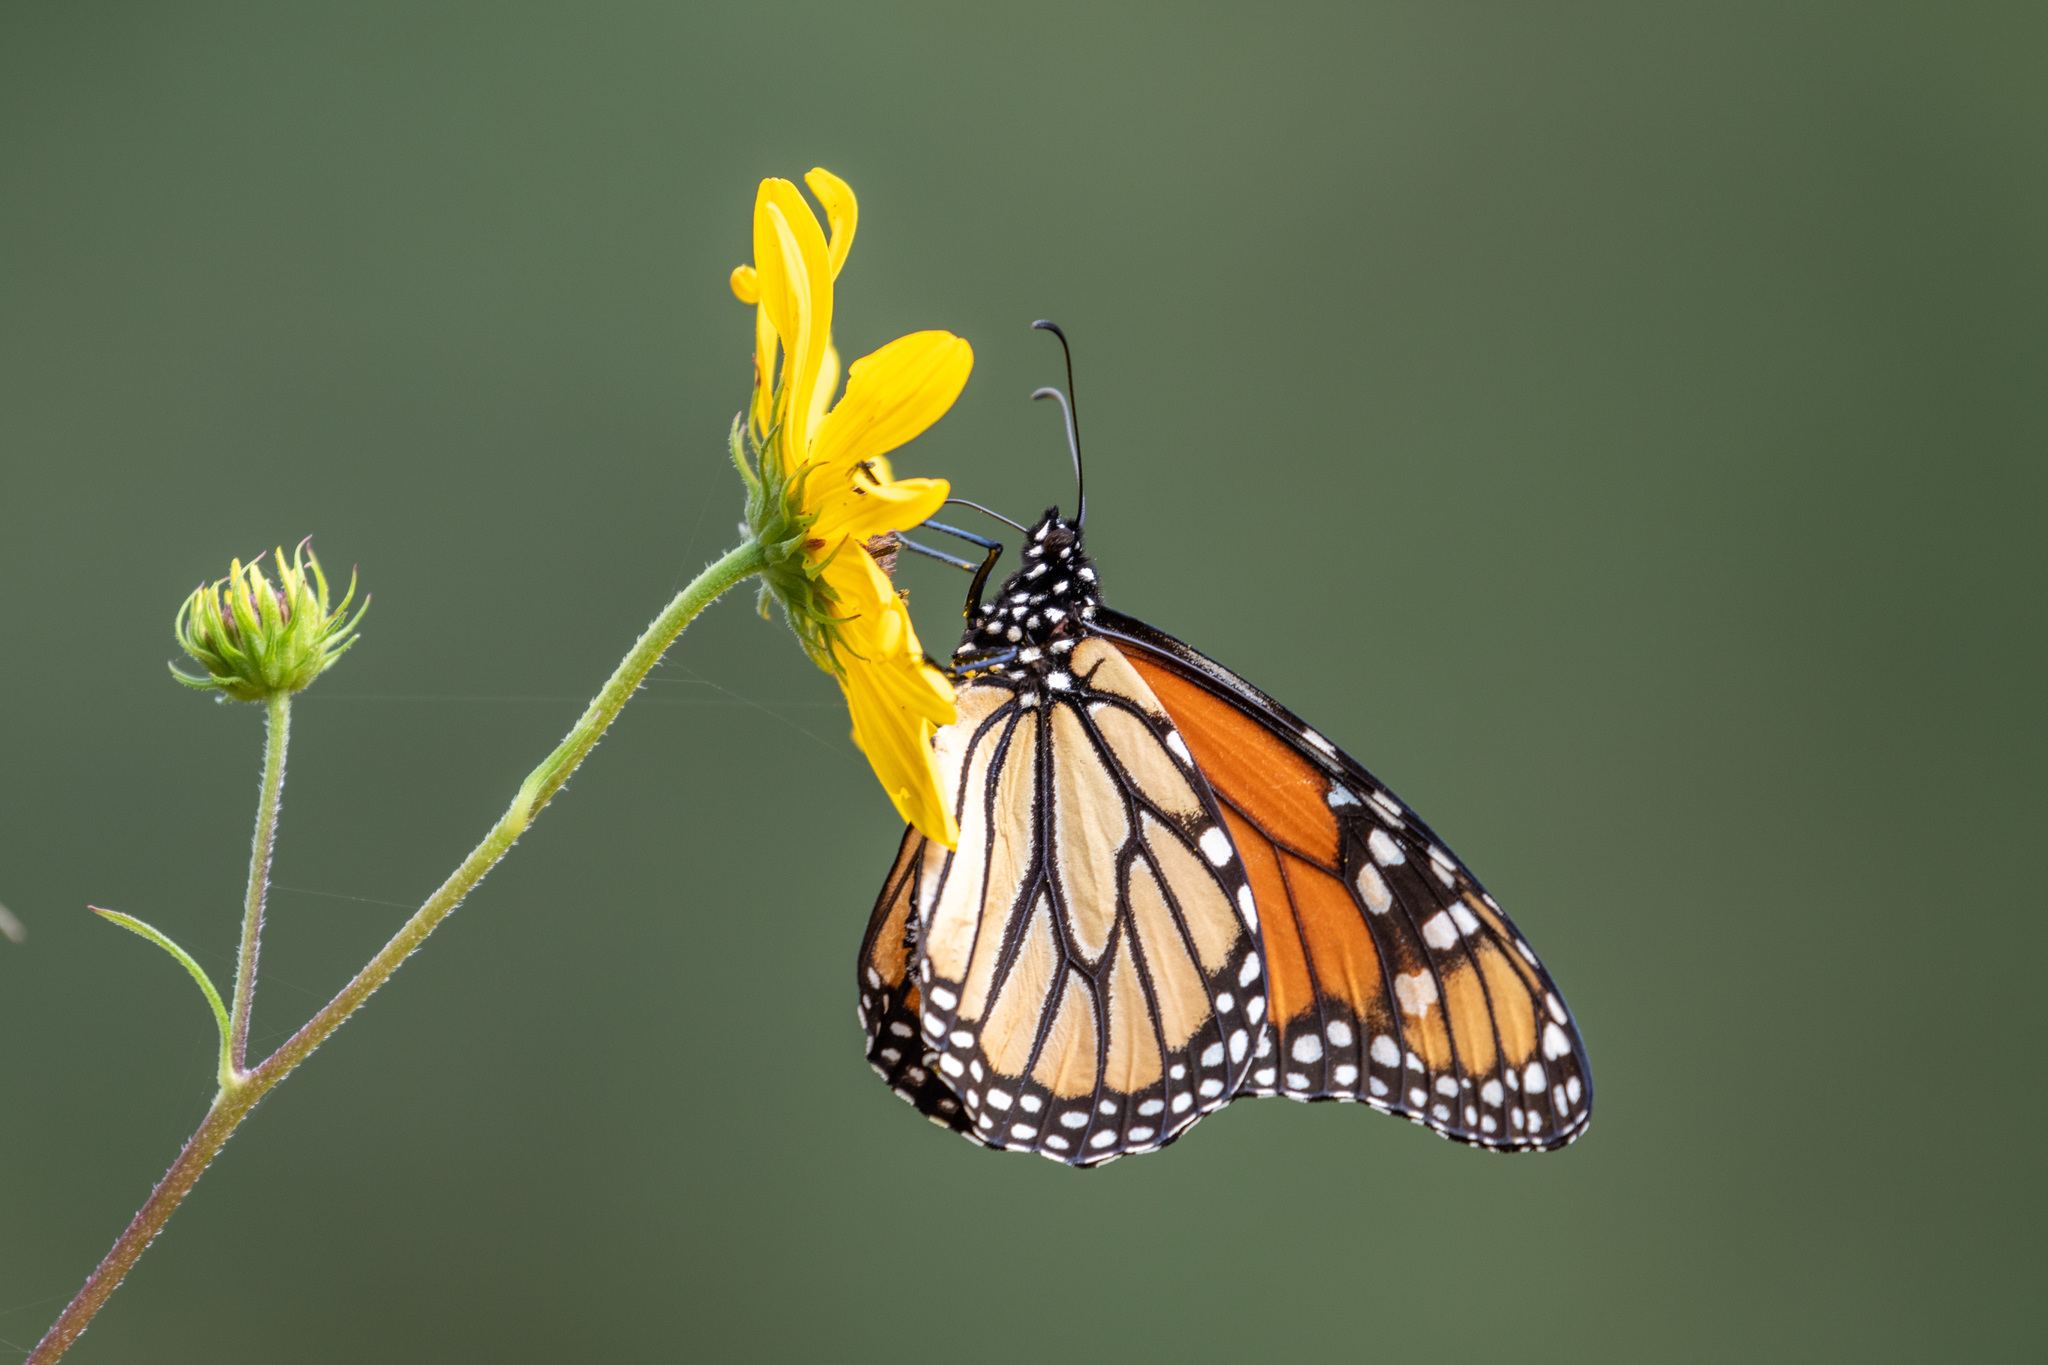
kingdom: Animalia
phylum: Arthropoda
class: Insecta
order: Lepidoptera
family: Nymphalidae
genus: Danaus
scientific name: Danaus plexippus
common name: Monarch
